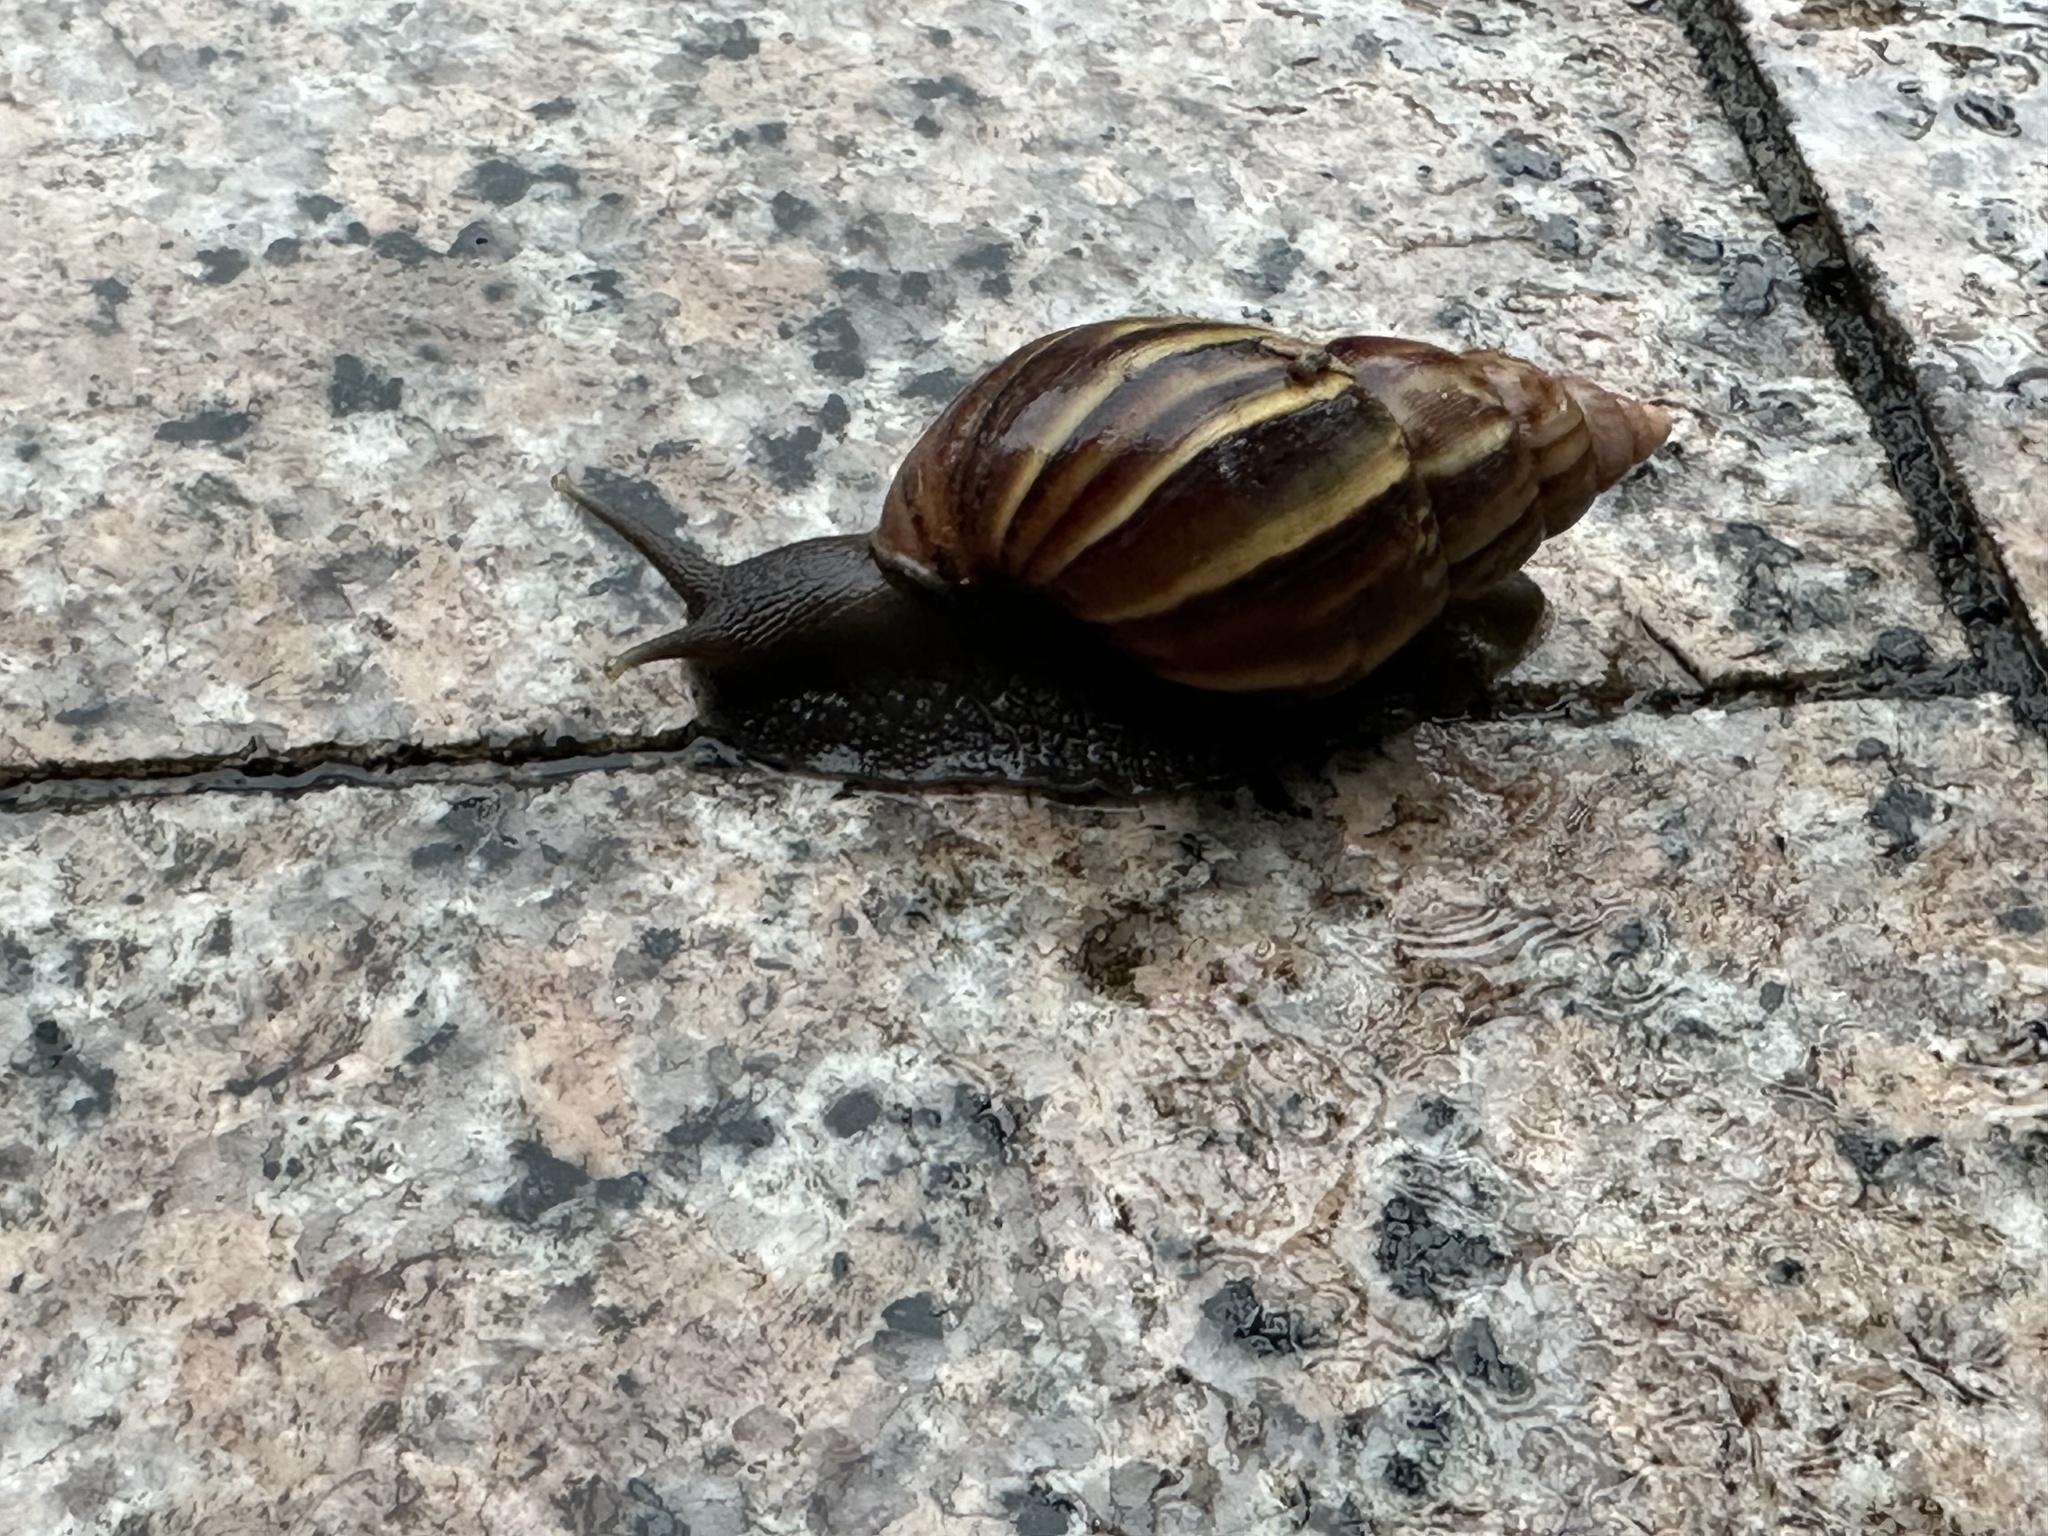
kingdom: Animalia
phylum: Mollusca
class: Gastropoda
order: Stylommatophora
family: Achatinidae
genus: Lissachatina
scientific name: Lissachatina fulica
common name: Giant african snail
